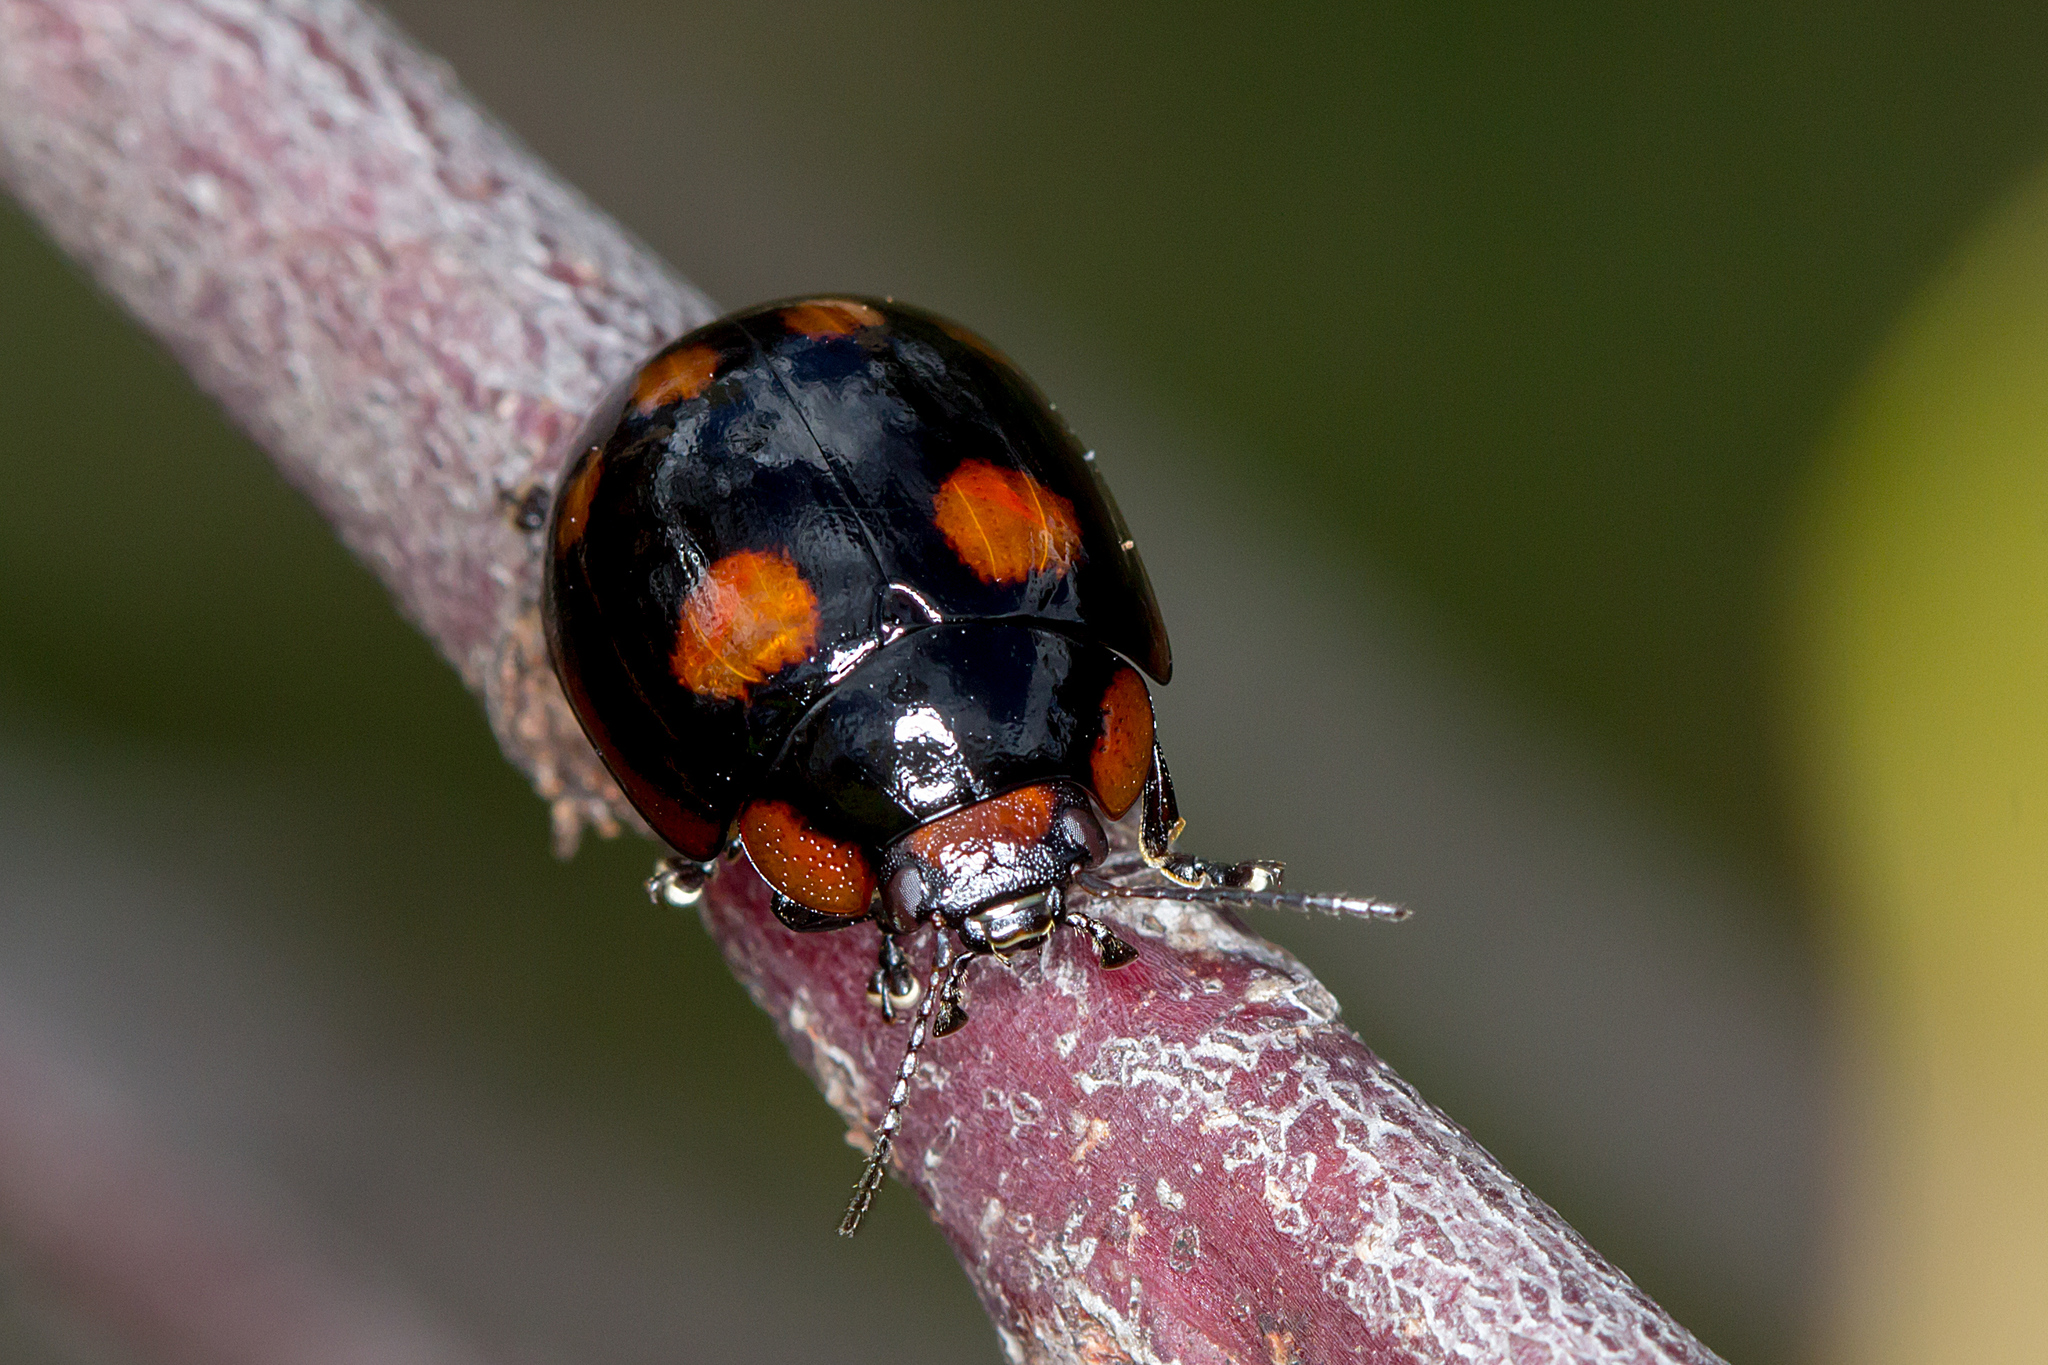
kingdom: Animalia
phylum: Arthropoda
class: Insecta
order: Coleoptera
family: Chrysomelidae
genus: Paropsisterna
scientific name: Paropsisterna beata
